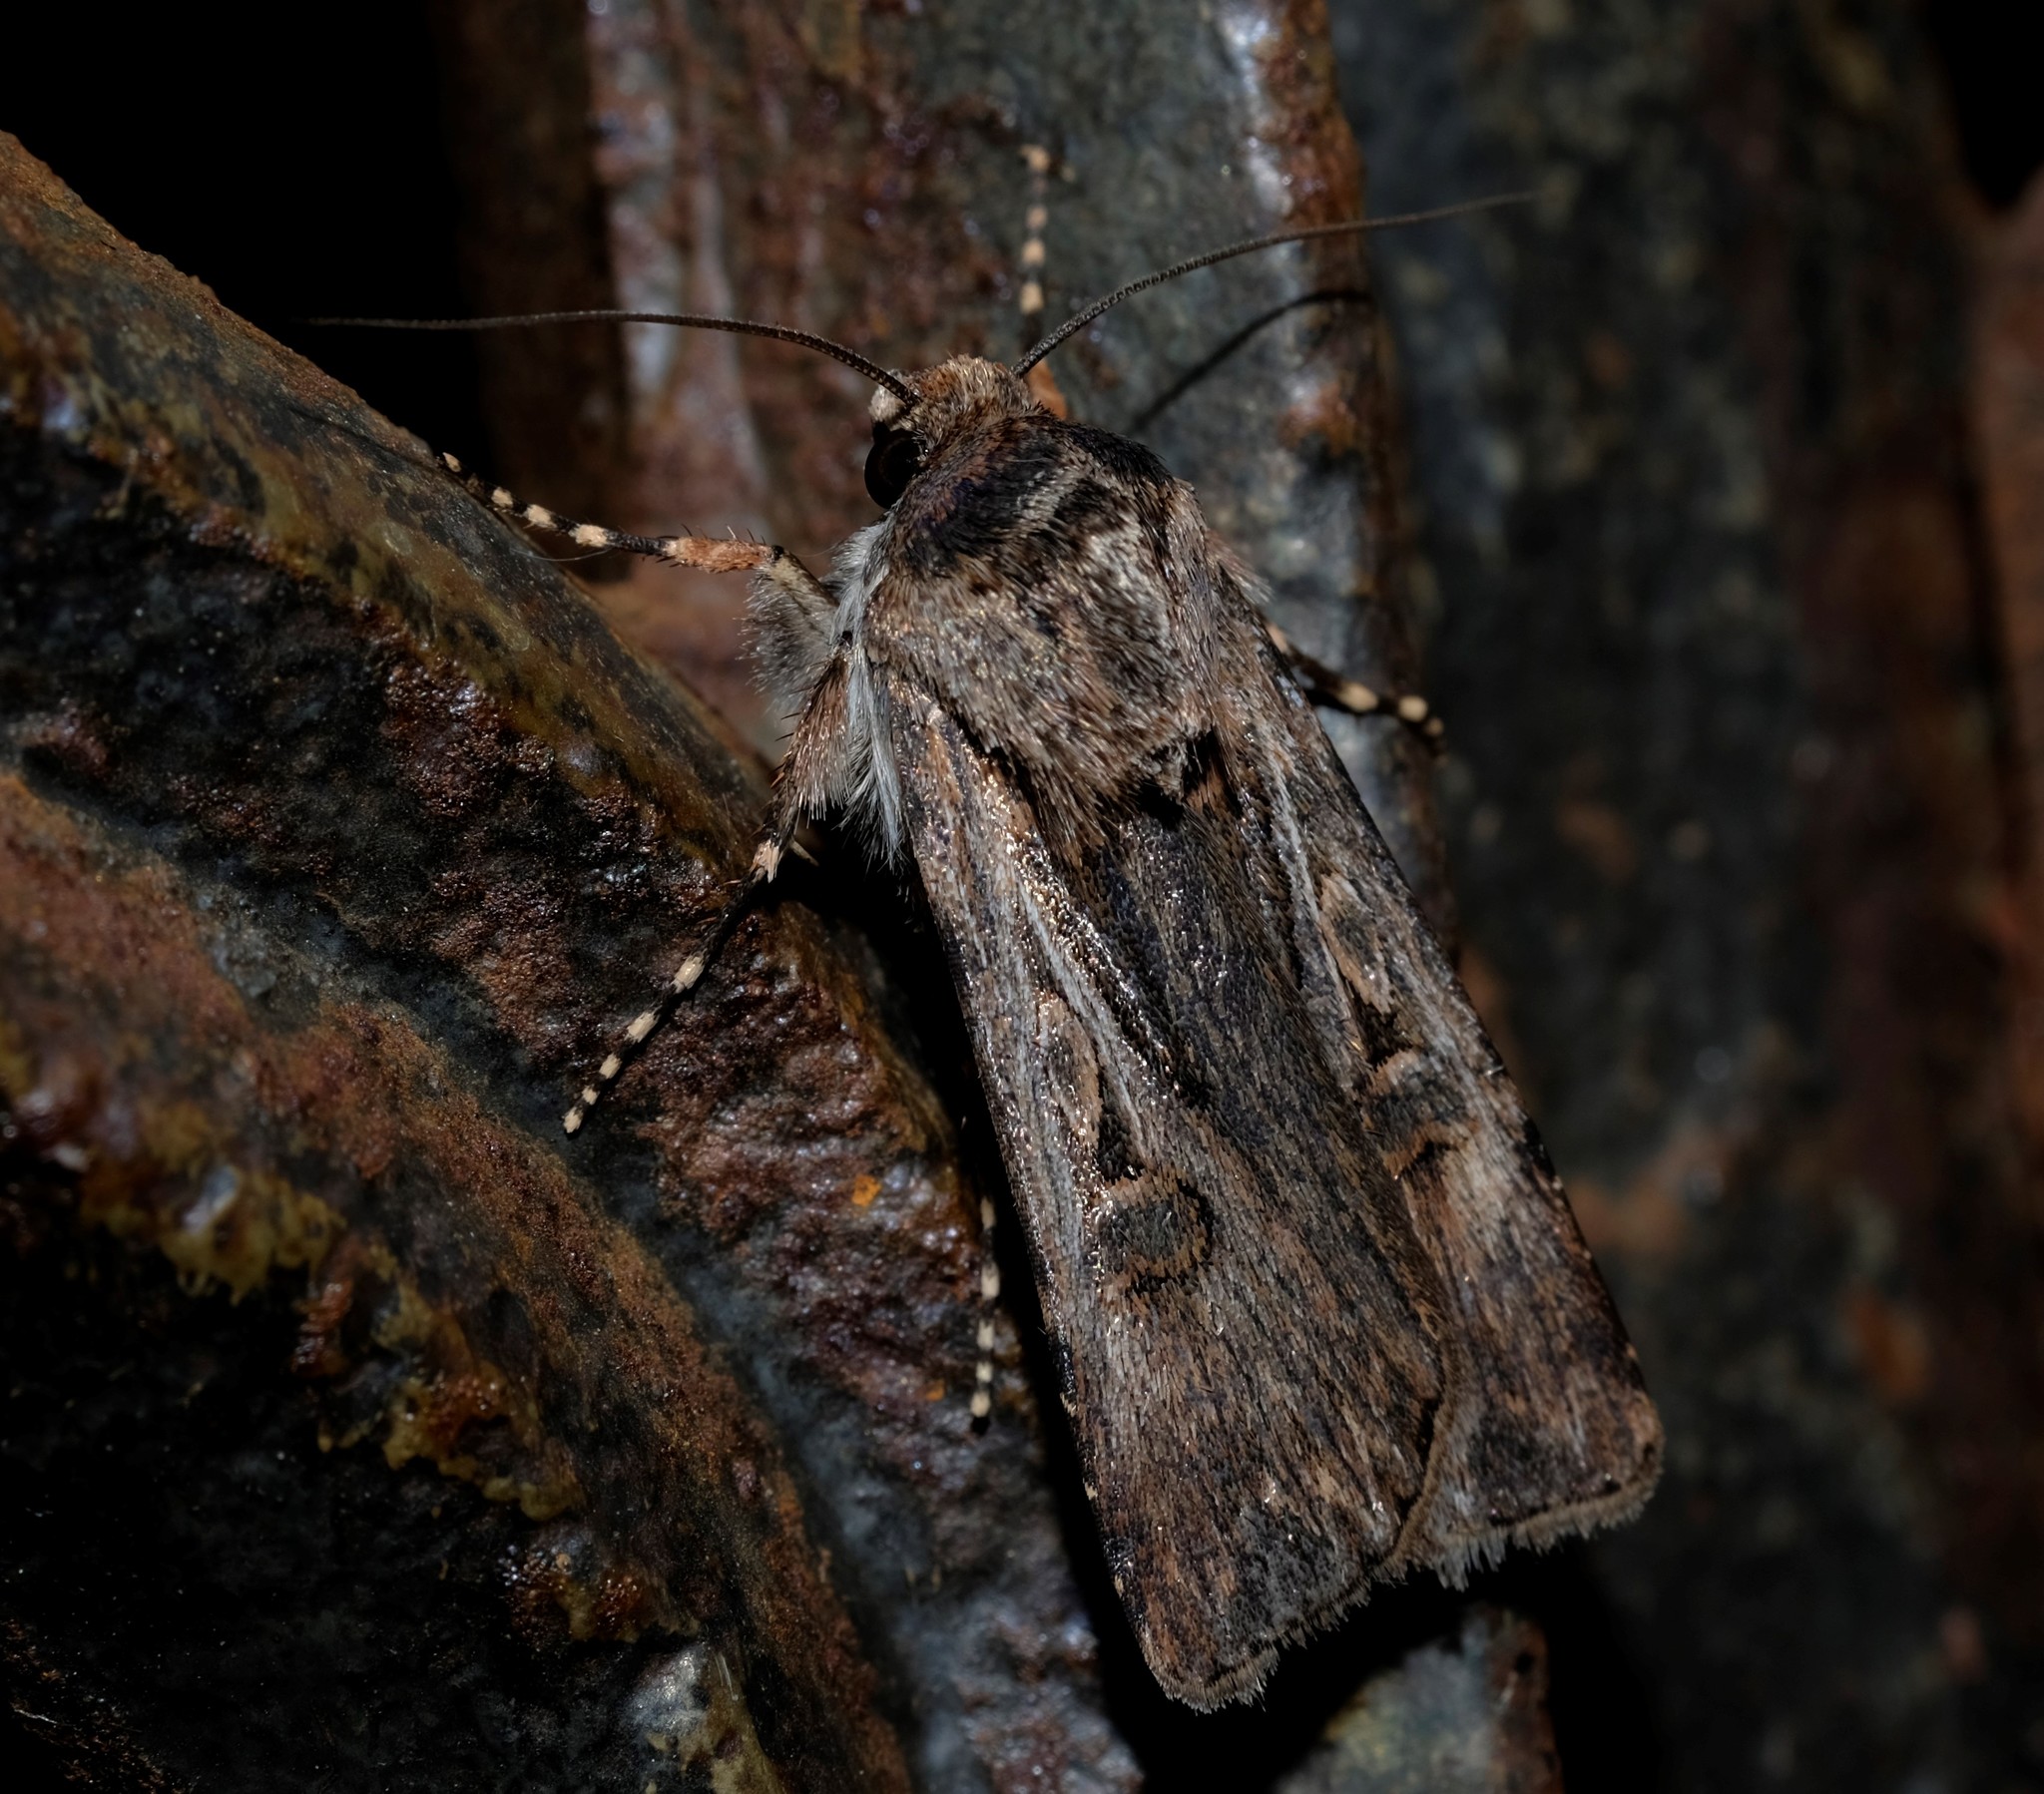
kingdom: Animalia
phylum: Arthropoda
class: Insecta
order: Lepidoptera
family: Noctuidae
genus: Agrotis
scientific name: Agrotis munda
